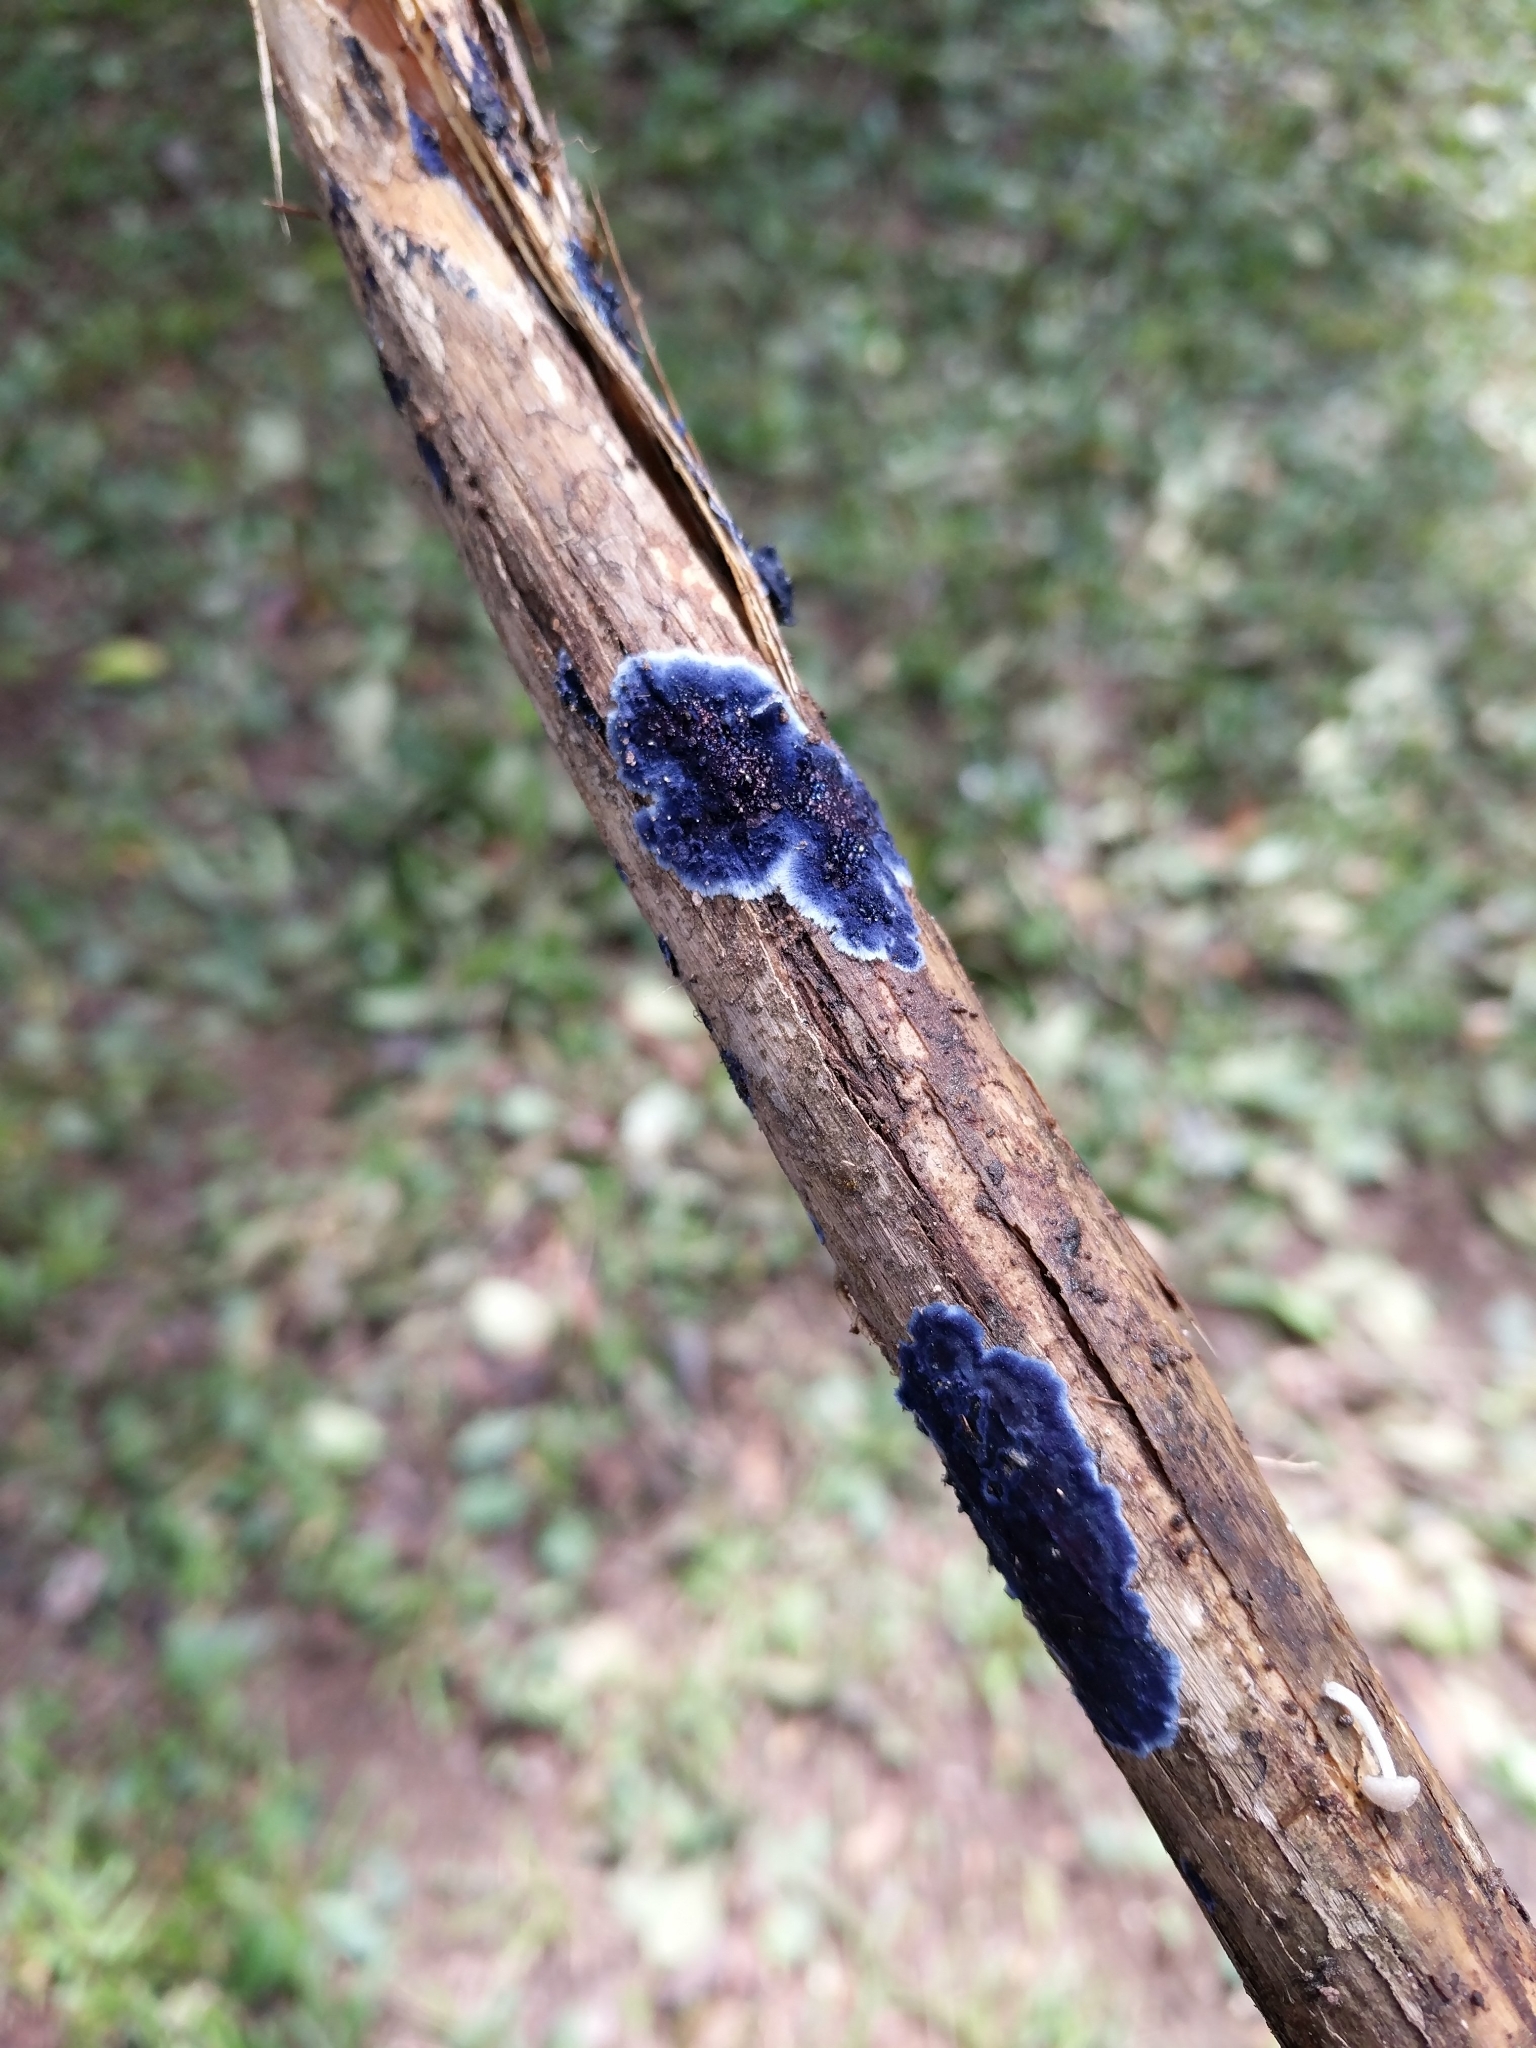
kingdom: Fungi
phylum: Basidiomycota
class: Agaricomycetes
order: Polyporales
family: Phanerochaetaceae
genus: Terana
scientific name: Terana coerulea
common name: Cobalt crust
